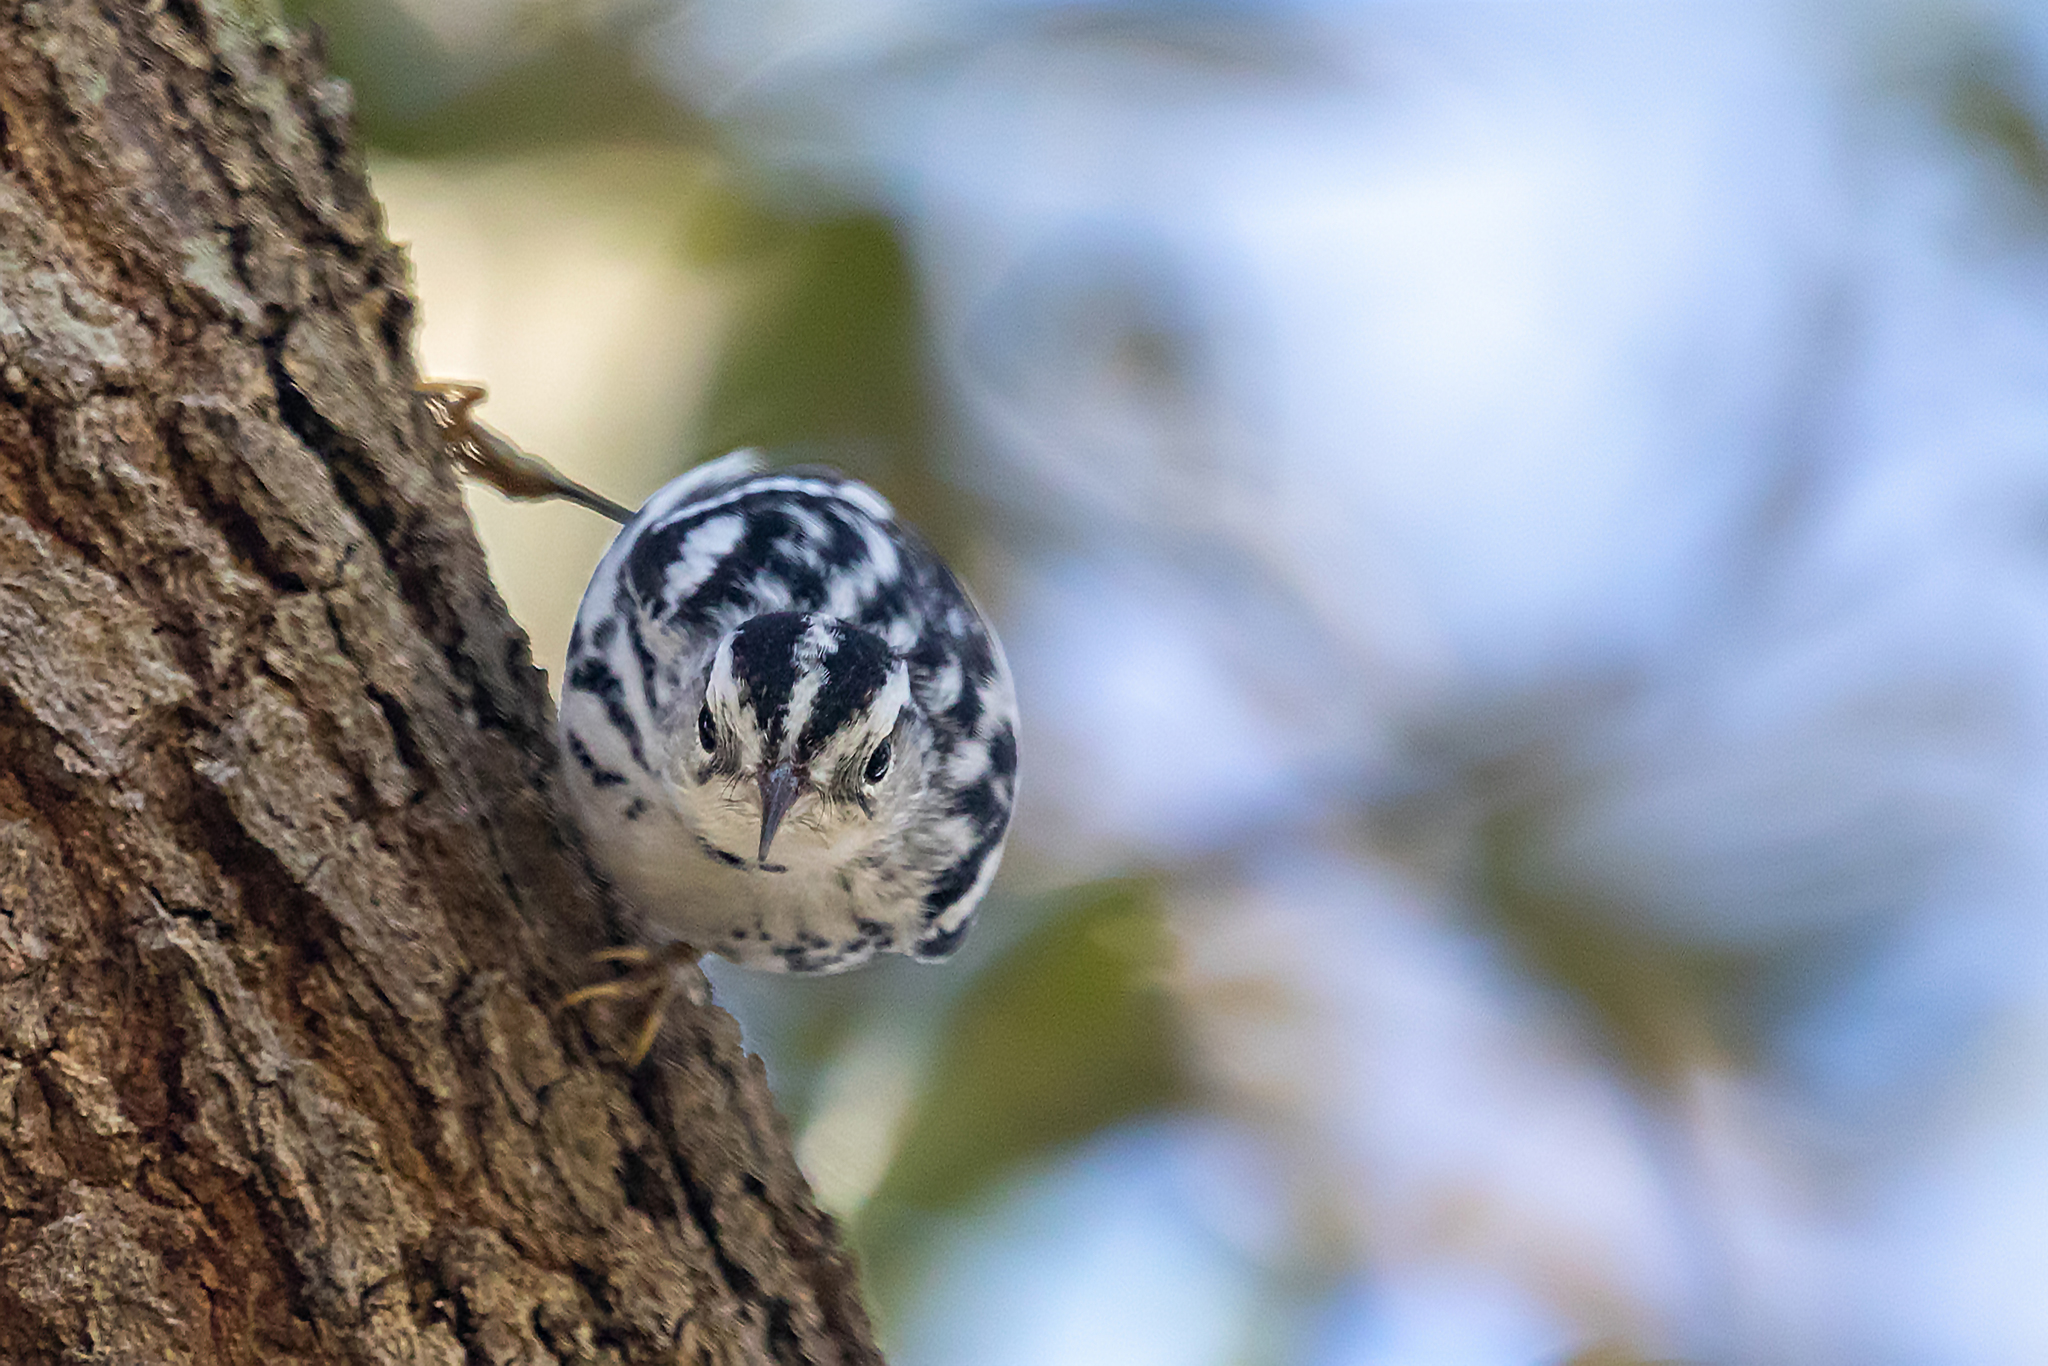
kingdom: Animalia
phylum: Chordata
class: Aves
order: Passeriformes
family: Parulidae
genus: Mniotilta
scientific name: Mniotilta varia
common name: Black-and-white warbler
